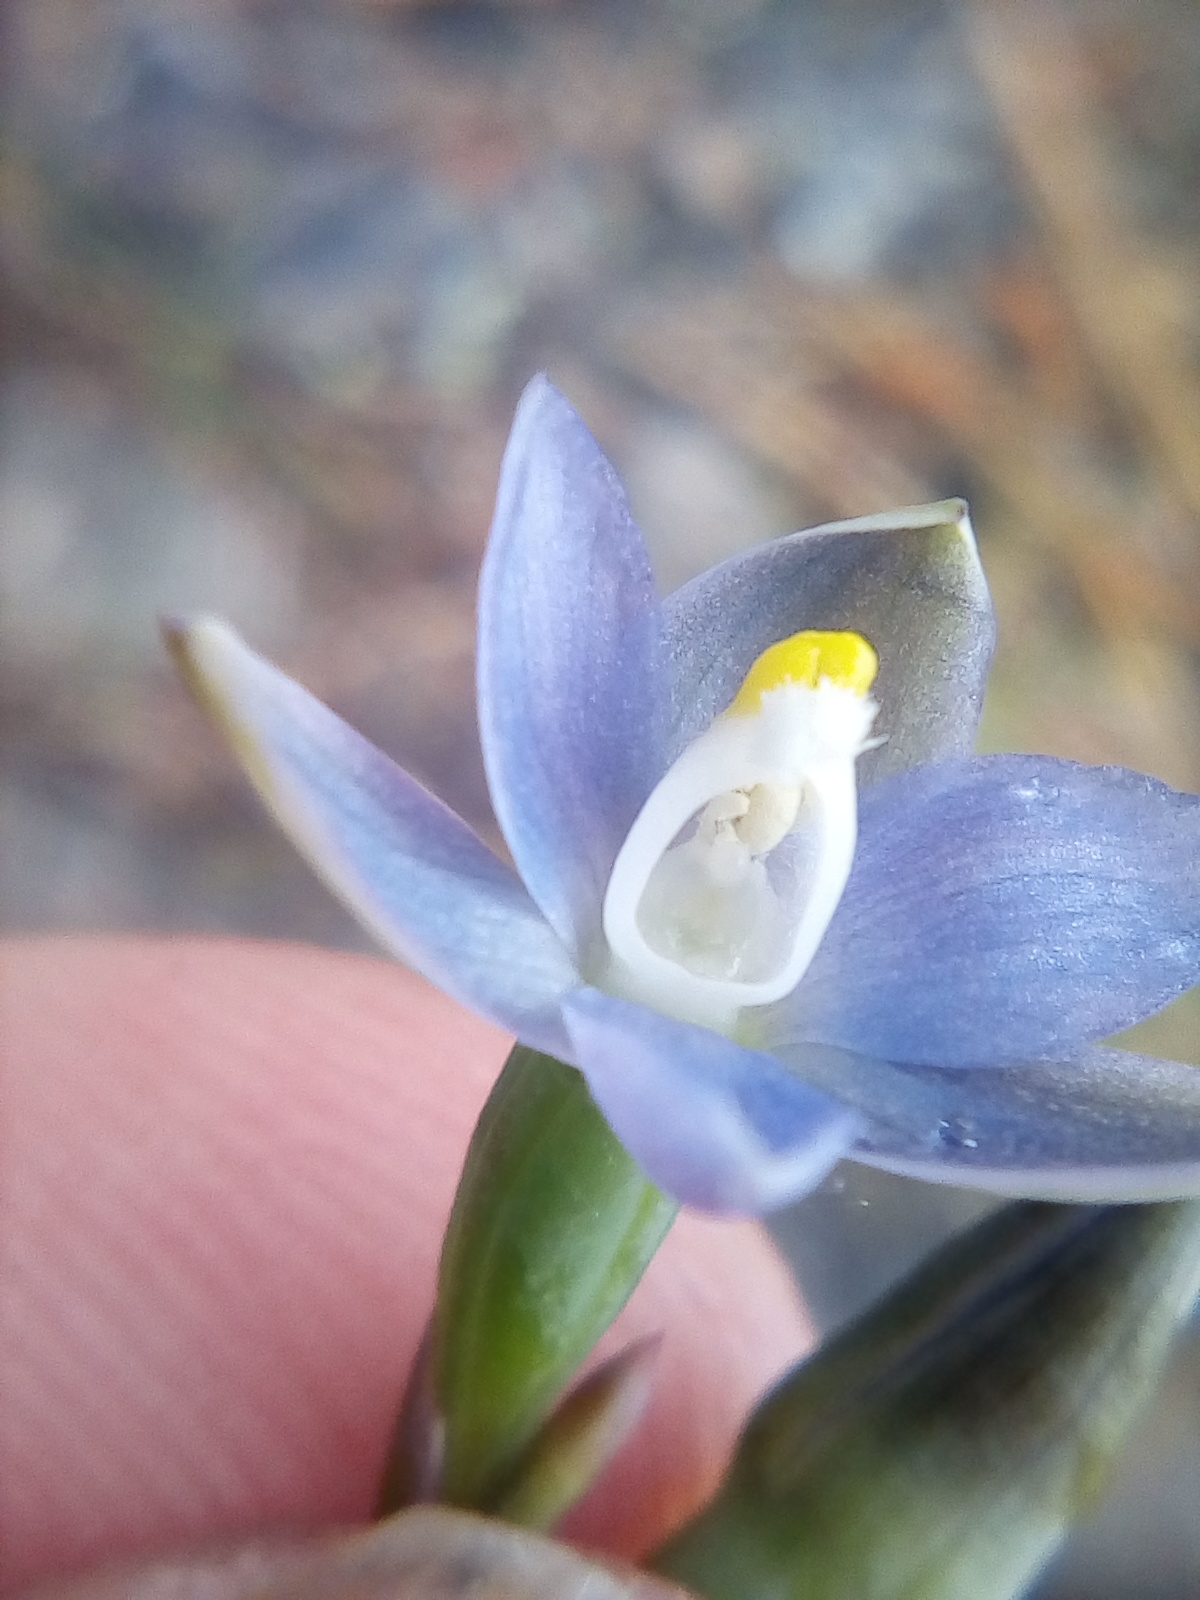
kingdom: Plantae
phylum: Tracheophyta
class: Liliopsida
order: Asparagales
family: Orchidaceae
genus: Thelymitra
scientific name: Thelymitra pauciflora
